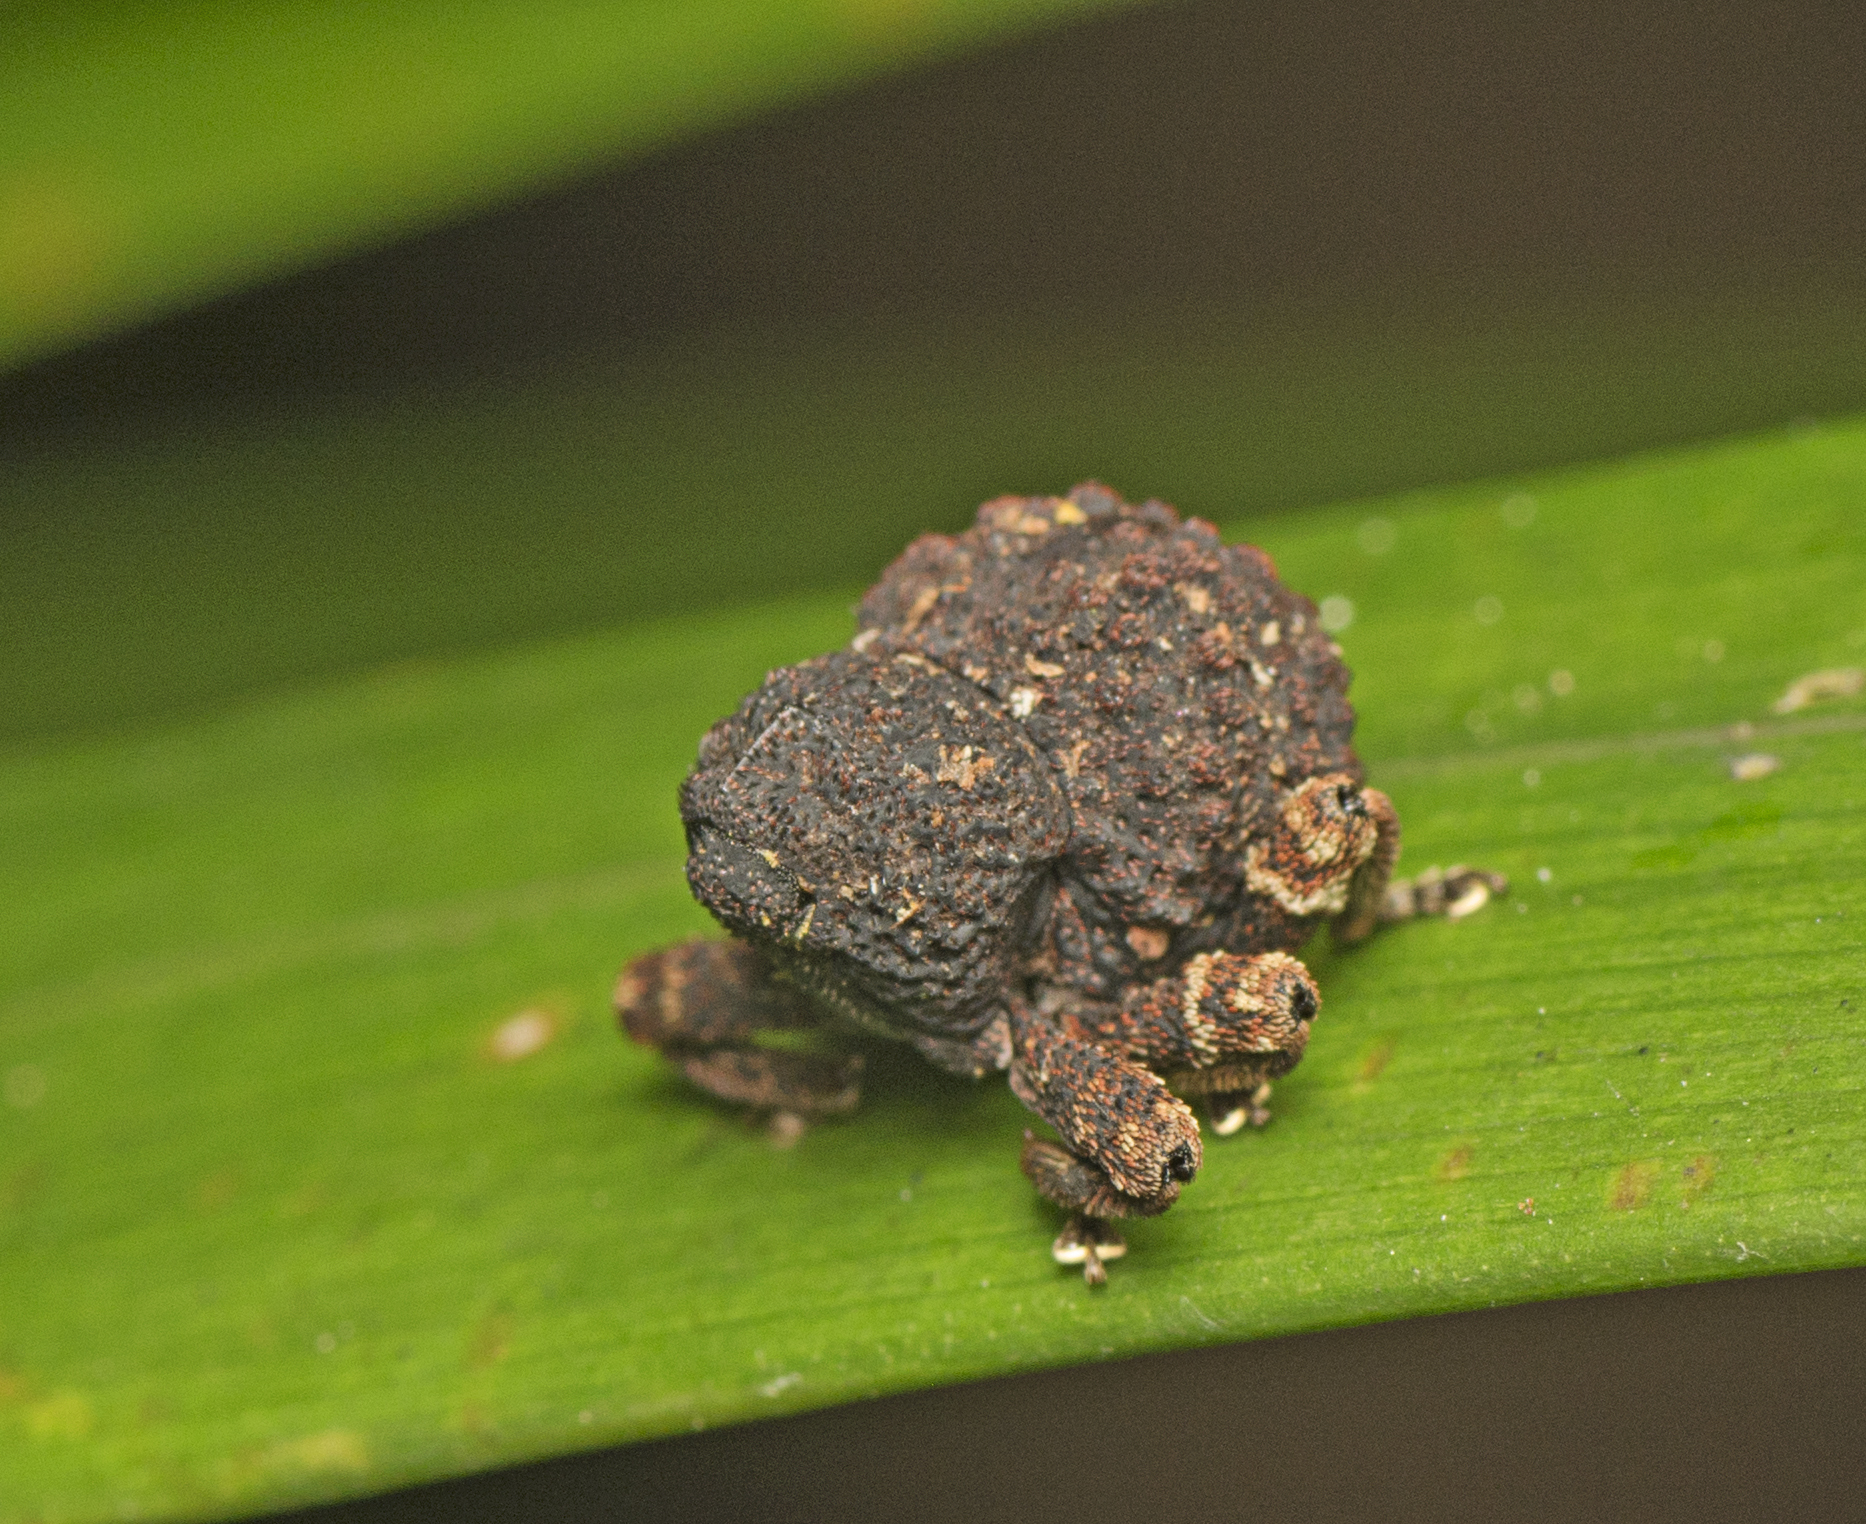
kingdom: Animalia
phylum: Arthropoda
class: Insecta
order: Coleoptera
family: Curculionidae
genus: Myrtesis
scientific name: Myrtesis caligata
